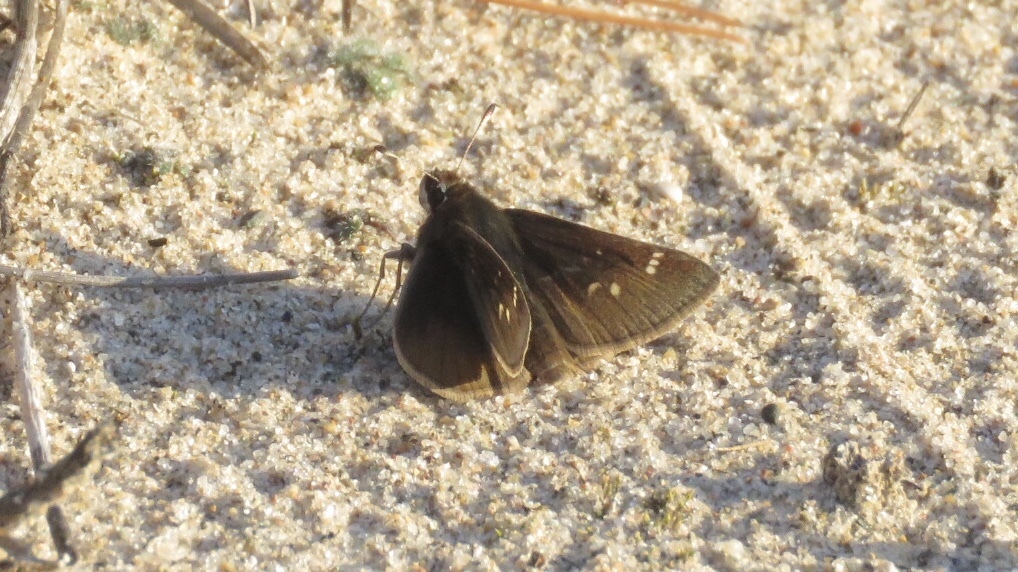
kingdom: Animalia
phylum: Arthropoda
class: Insecta
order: Lepidoptera
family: Hesperiidae
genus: Atrytonopsis
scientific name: Atrytonopsis hianna
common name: Dusted skipper
